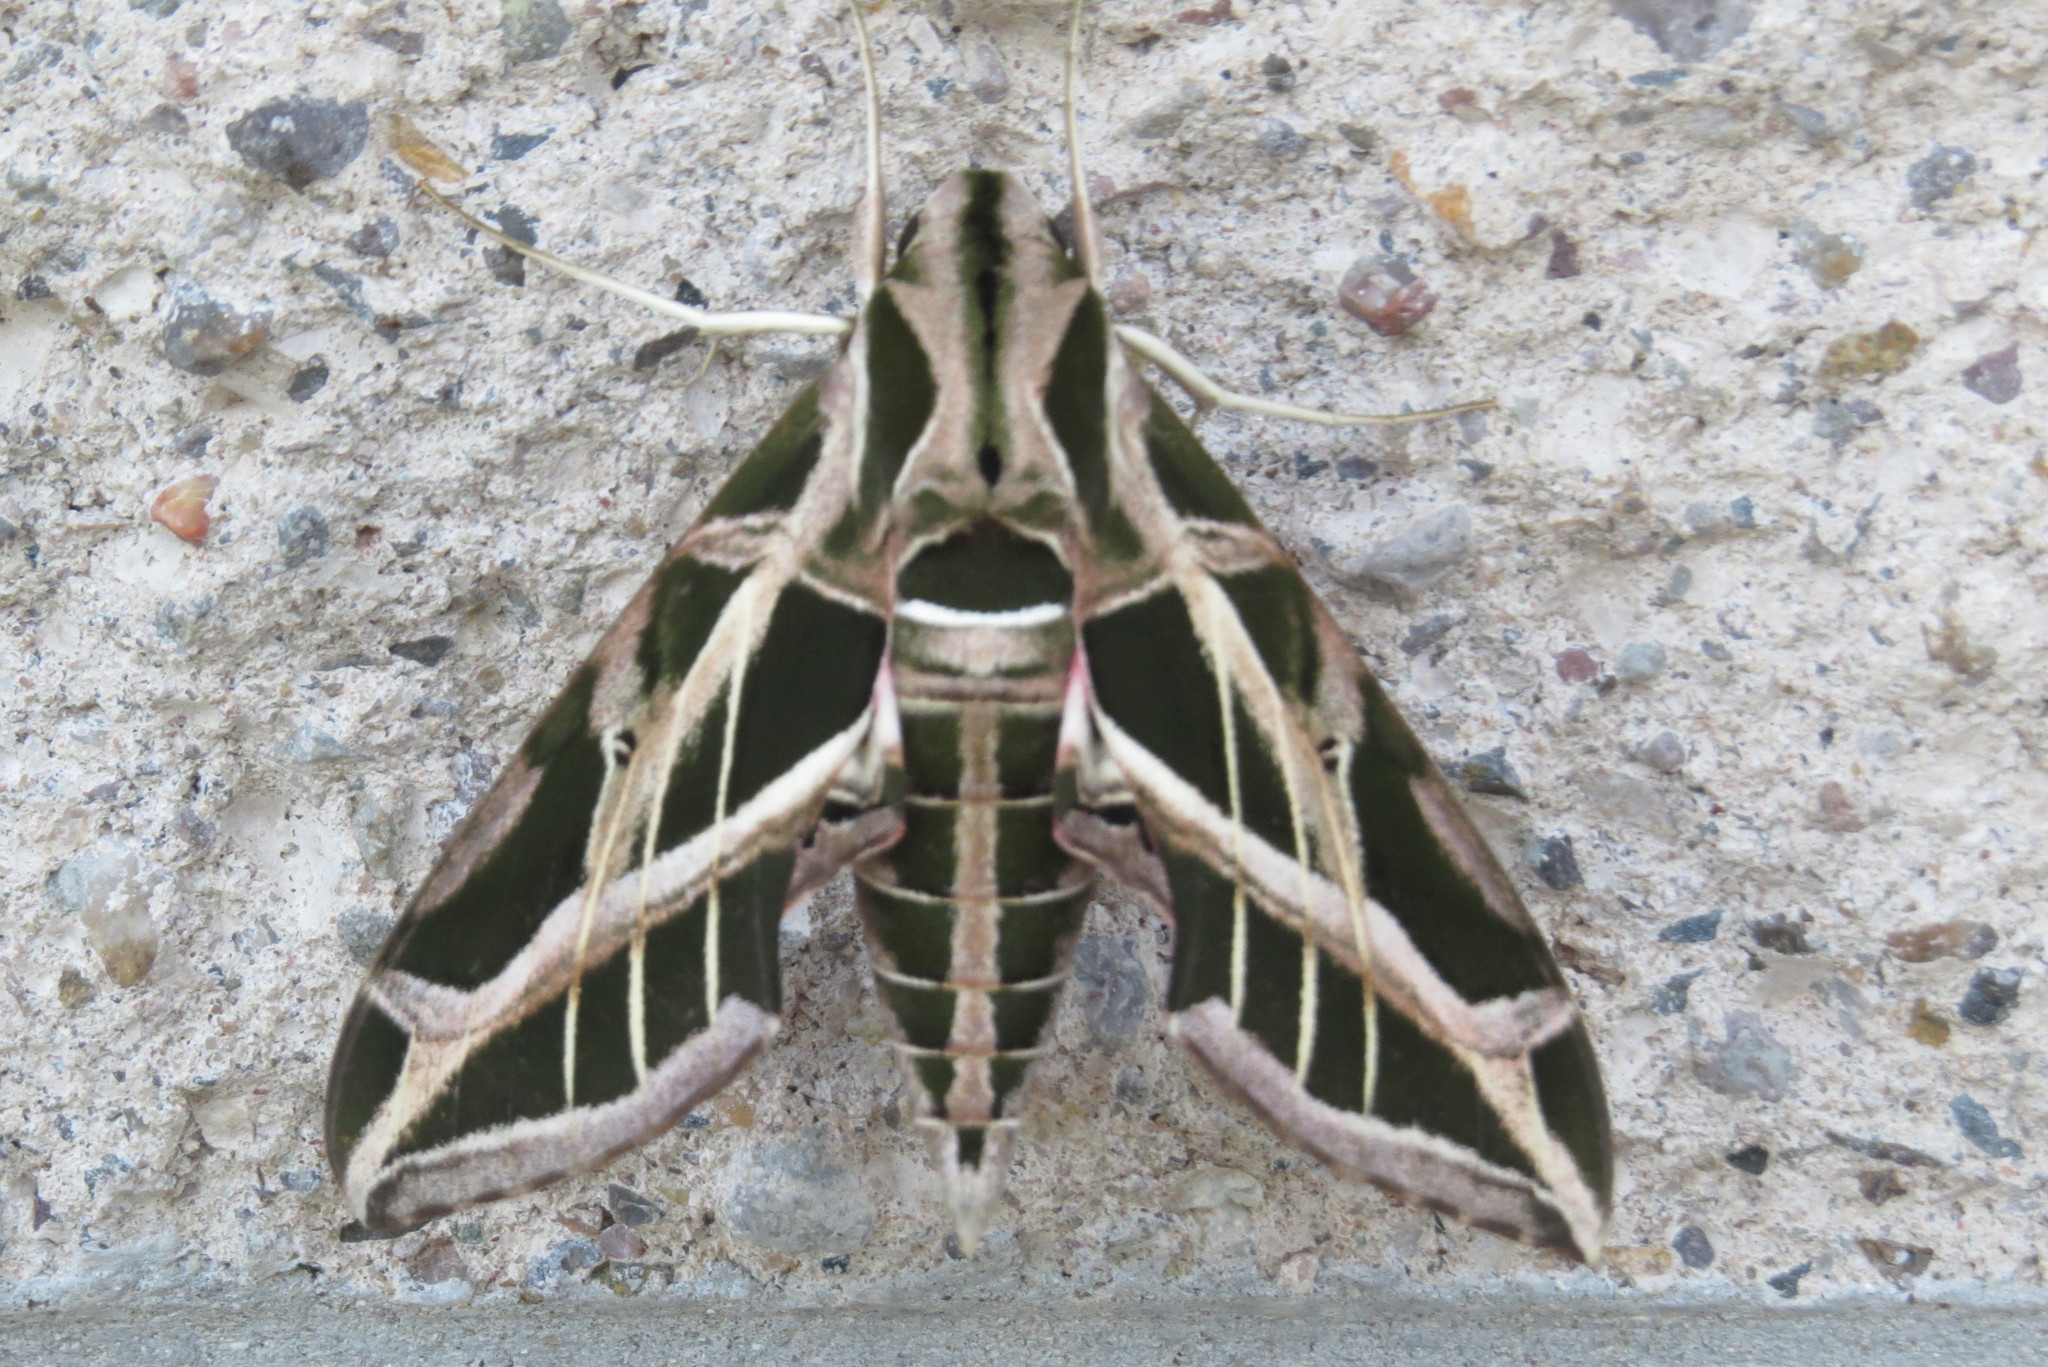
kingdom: Animalia
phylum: Arthropoda
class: Insecta
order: Lepidoptera
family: Sphingidae
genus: Eumorpha
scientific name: Eumorpha vitis
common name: Vine sphinx
